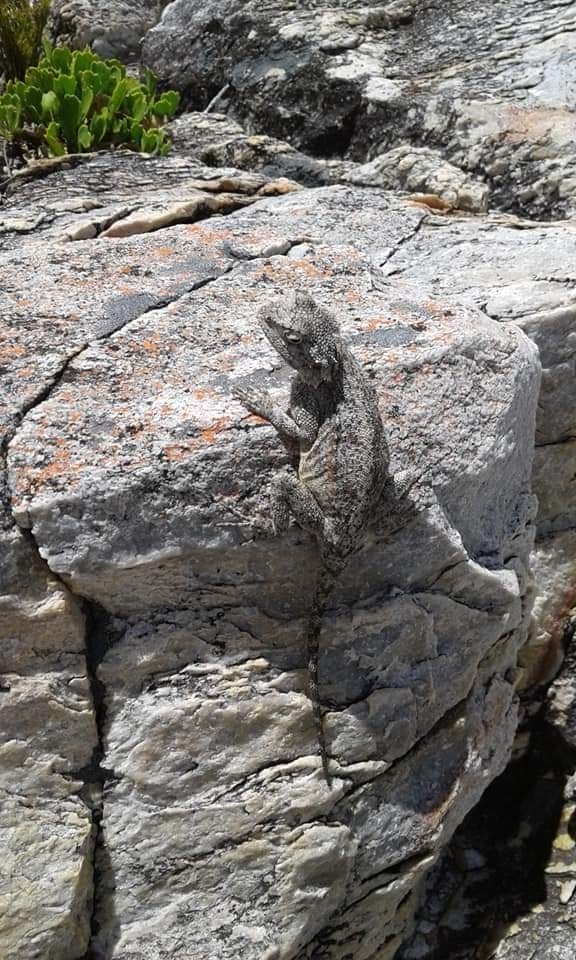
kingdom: Animalia
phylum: Chordata
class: Squamata
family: Agamidae
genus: Agama
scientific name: Agama atra
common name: Southern african rock agama
